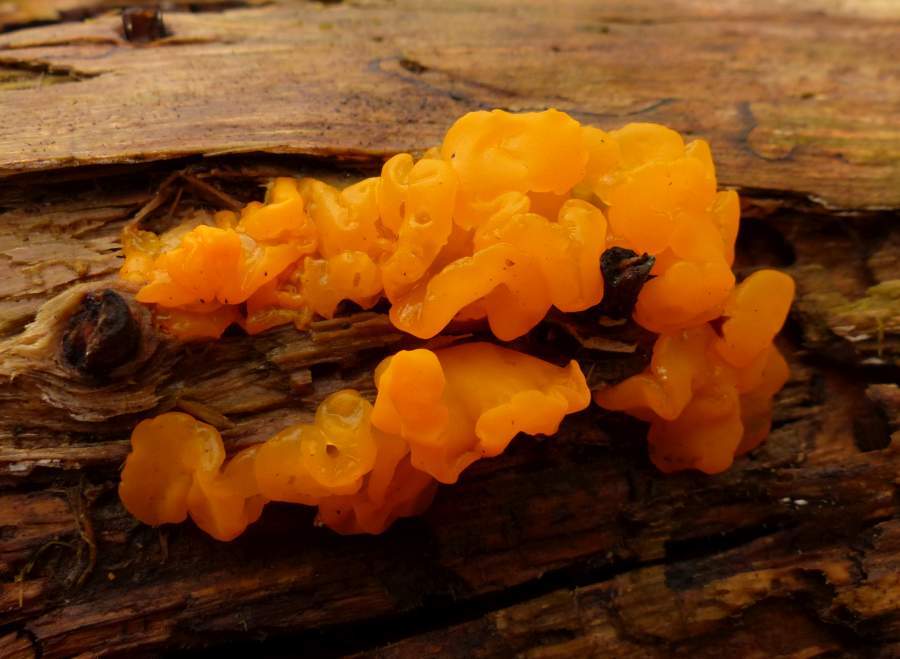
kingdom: Fungi
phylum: Basidiomycota
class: Dacrymycetes
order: Dacrymycetales
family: Dacrymycetaceae
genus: Dacrymyces
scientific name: Dacrymyces chrysospermus
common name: Orange jelly spot
